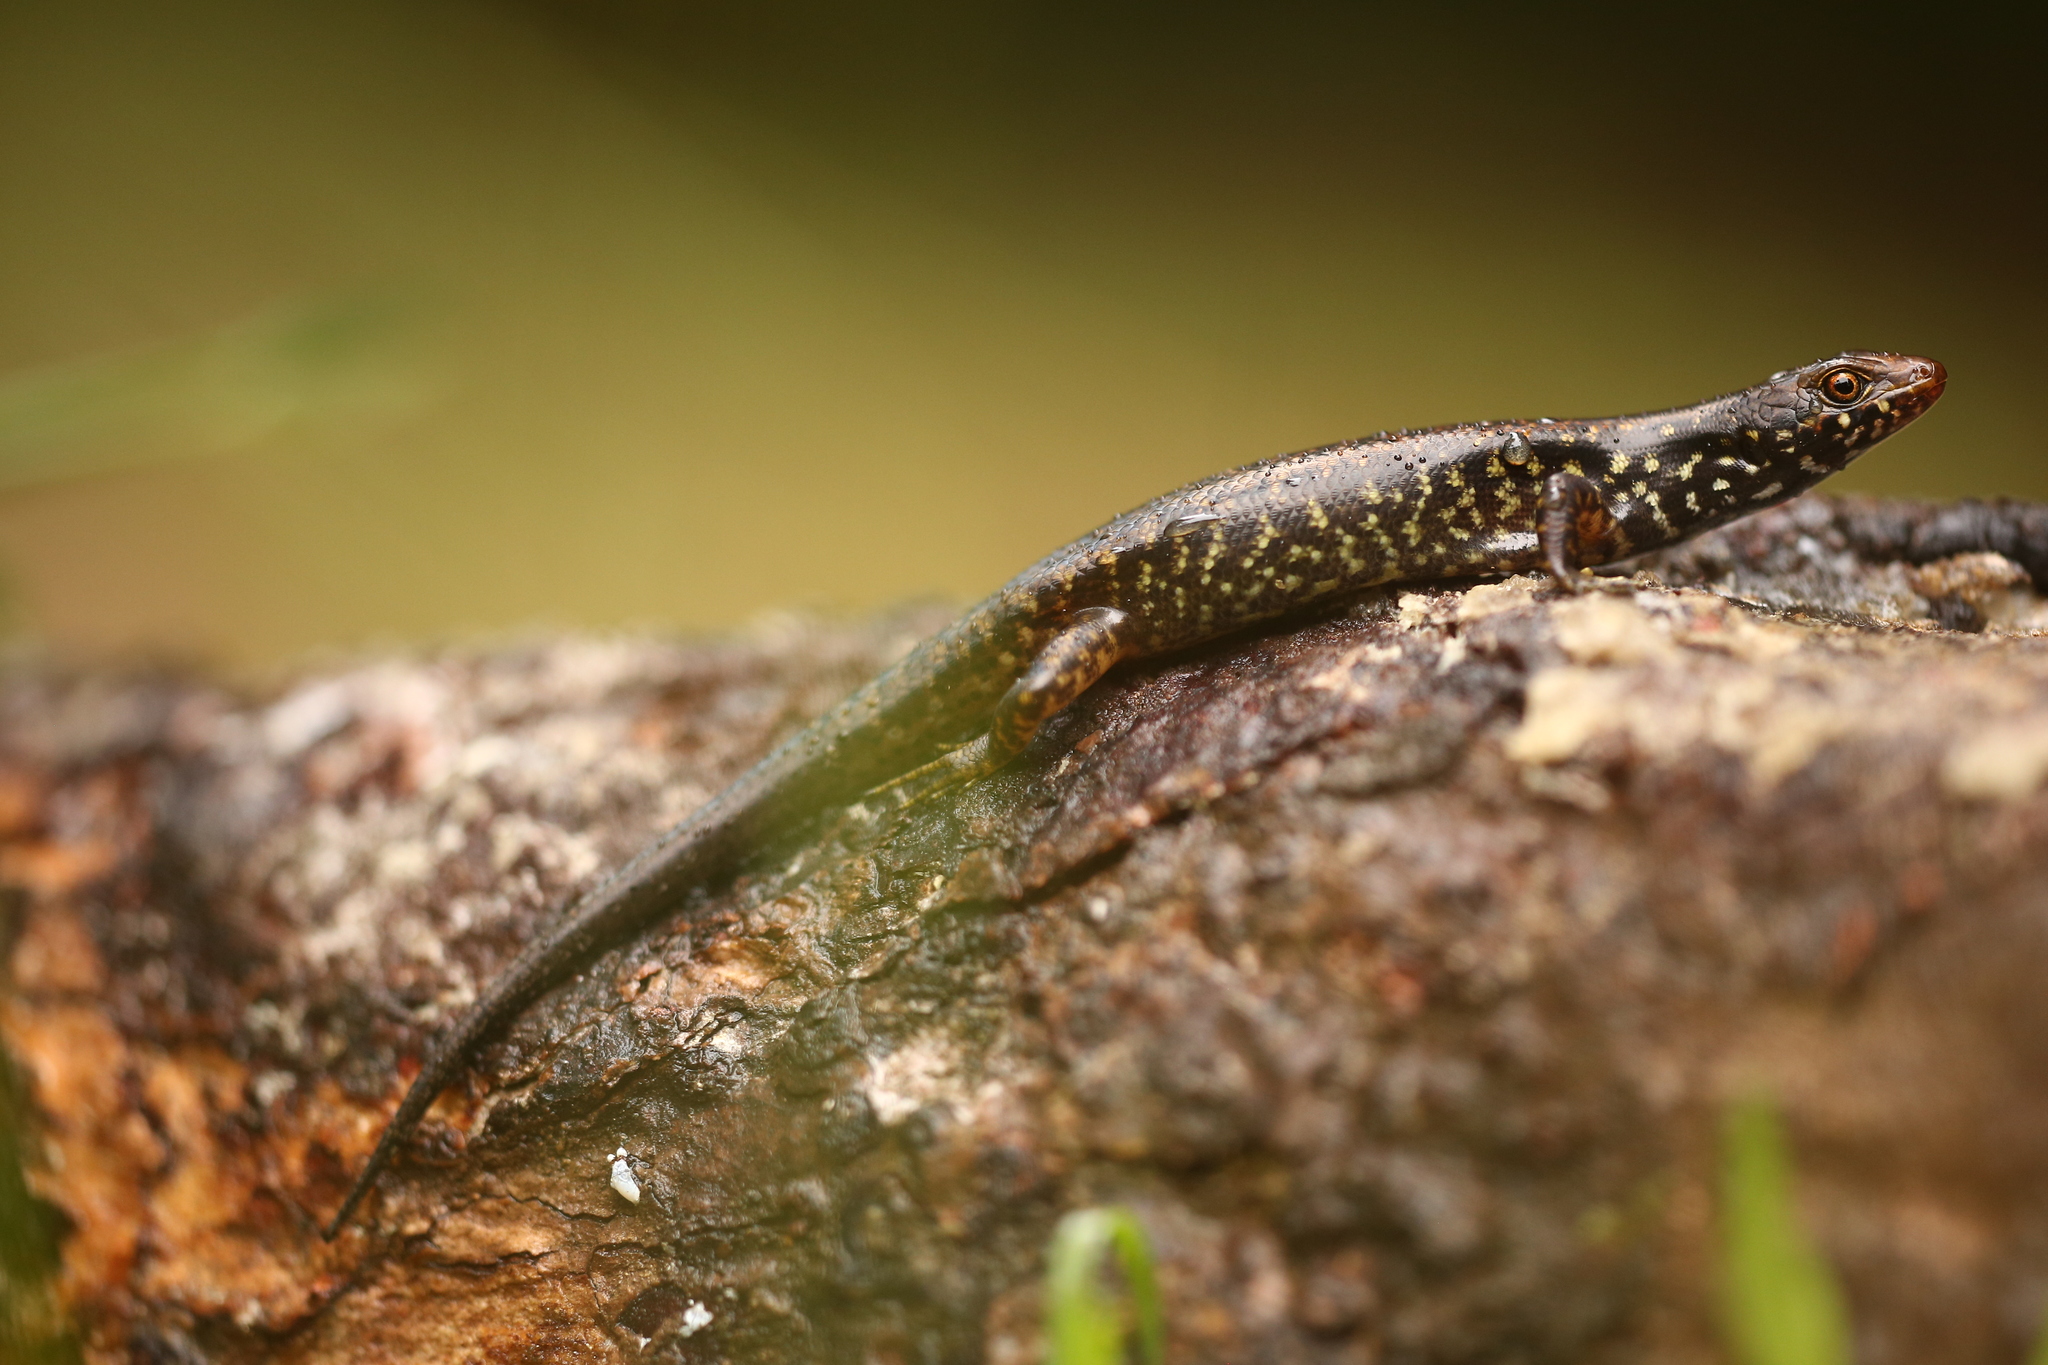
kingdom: Animalia
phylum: Chordata
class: Squamata
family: Scincidae
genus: Marmorosphax
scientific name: Marmorosphax tricolor
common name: Marble-throated skink
